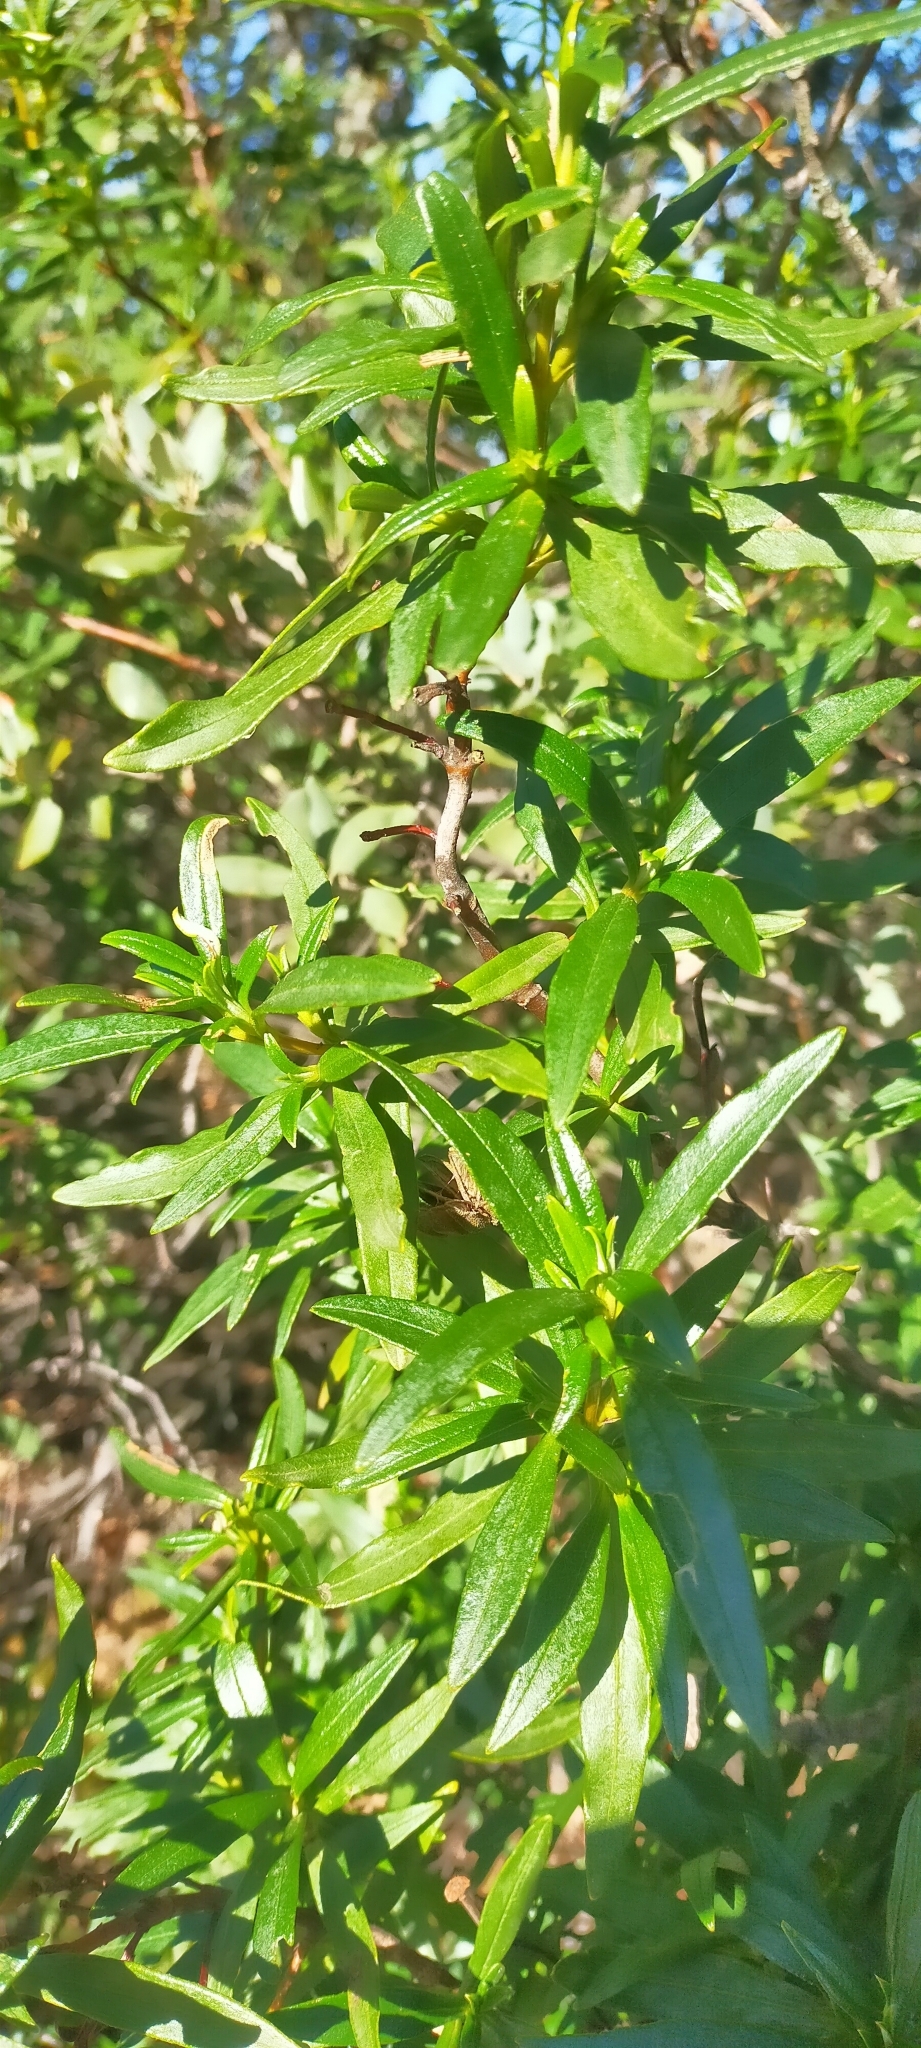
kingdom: Plantae
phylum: Tracheophyta
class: Magnoliopsida
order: Malvales
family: Cistaceae
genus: Cistus
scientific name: Cistus ladanifer
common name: Common gum cistus
